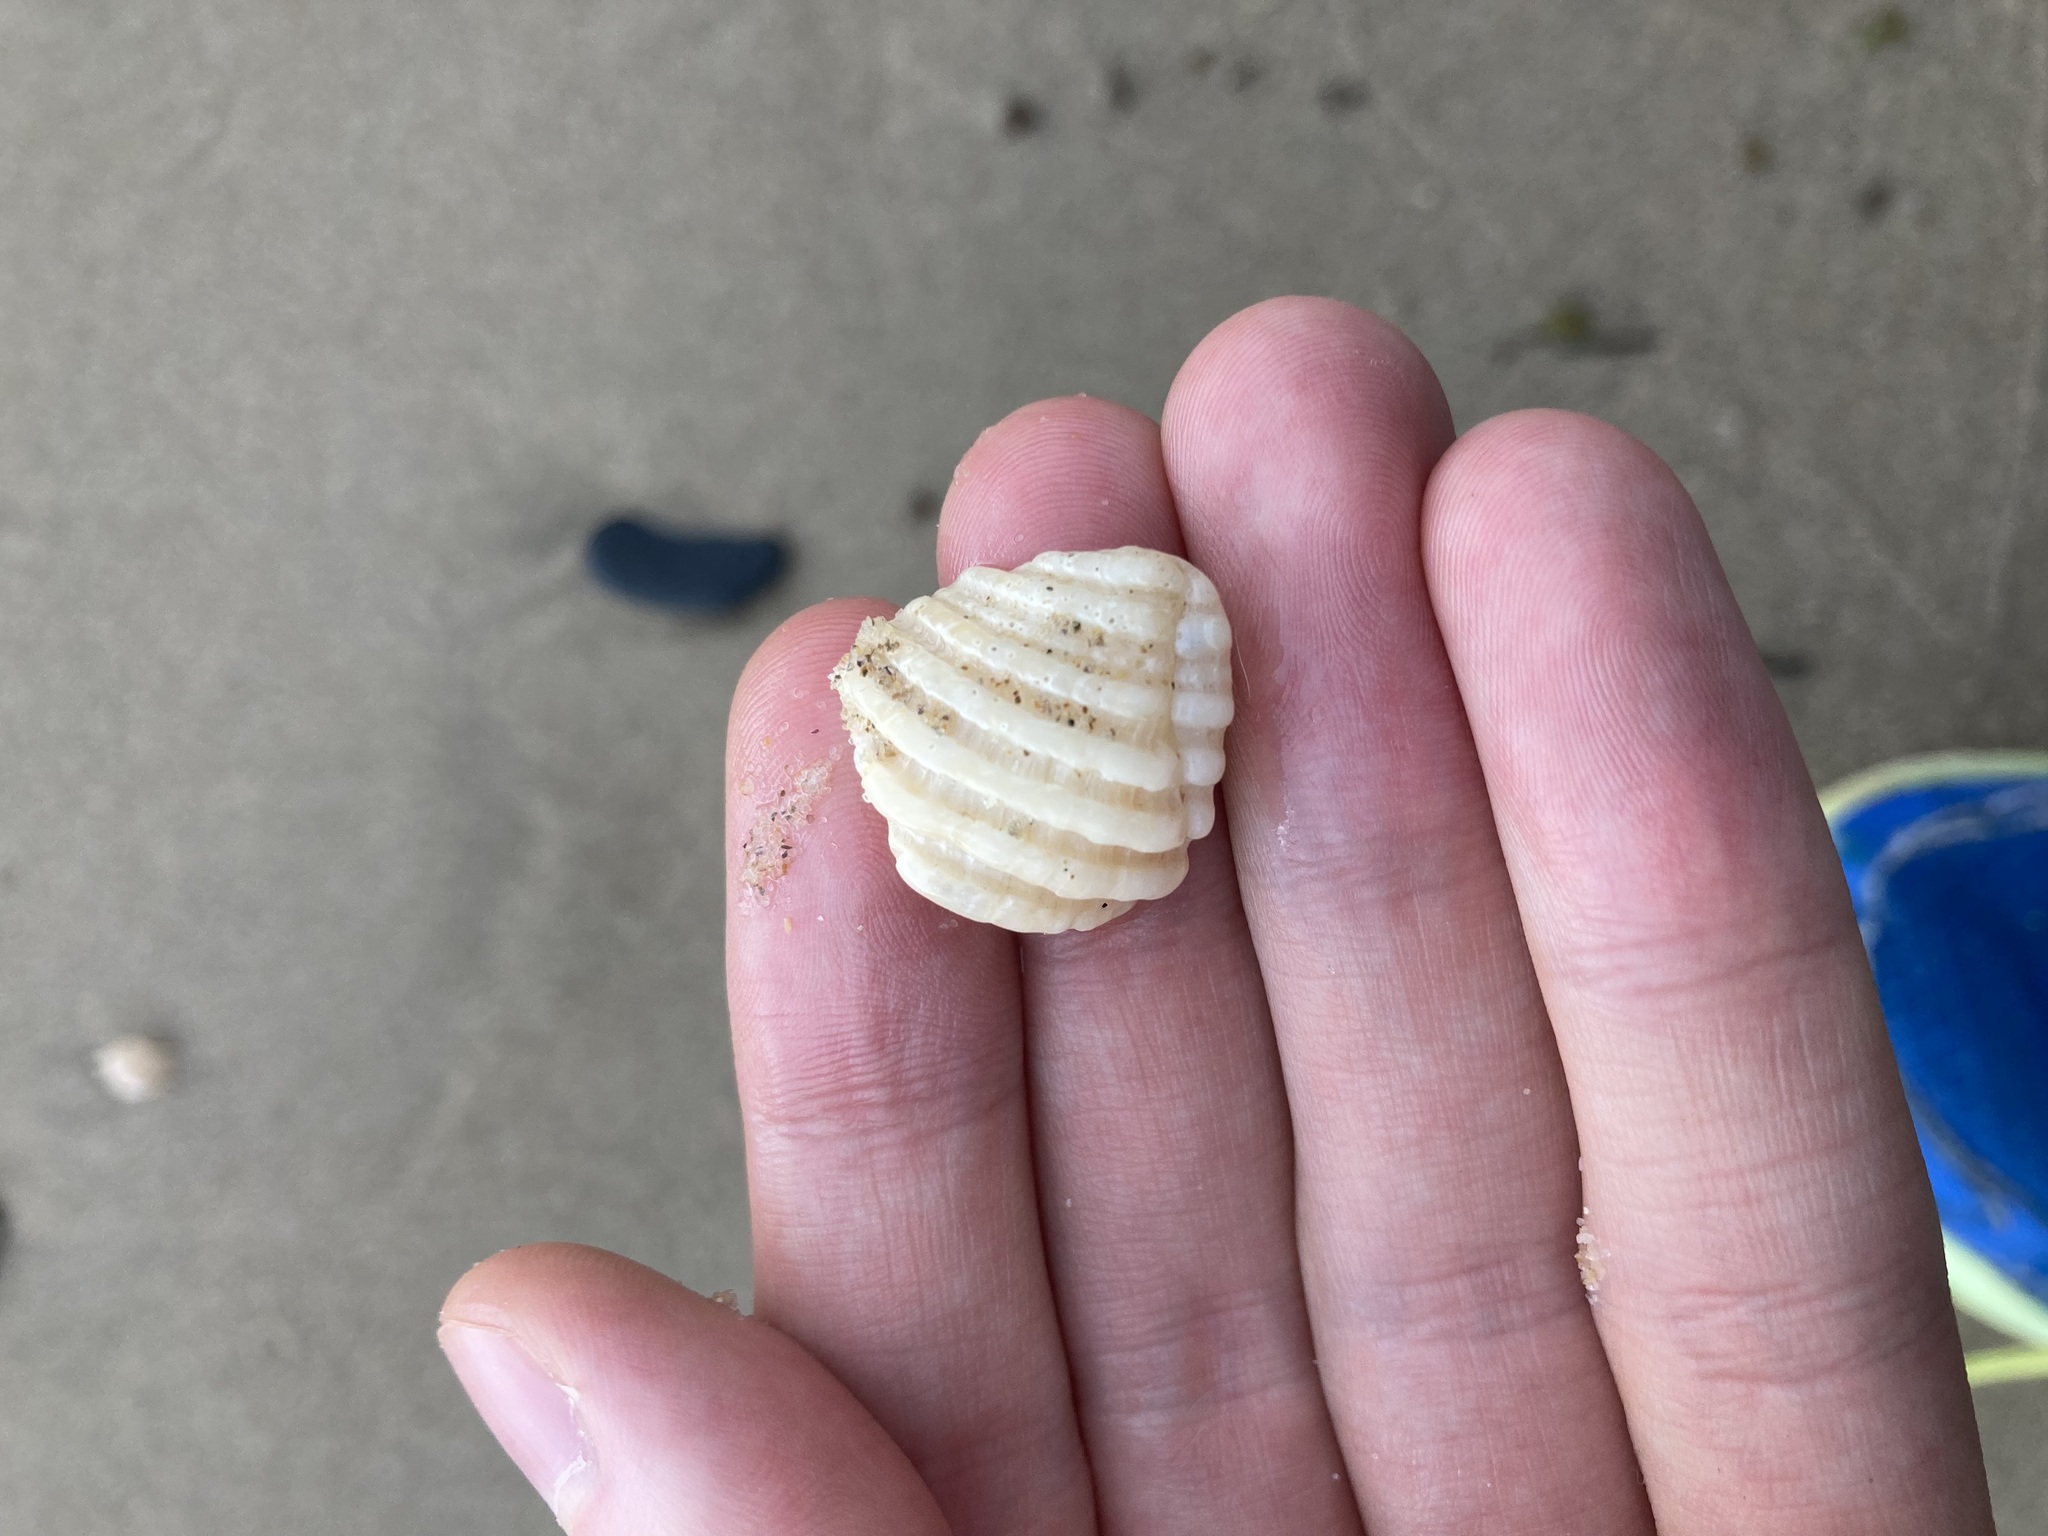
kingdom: Animalia
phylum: Mollusca
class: Gastropoda
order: Neogastropoda
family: Muricidae
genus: Dicathais
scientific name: Dicathais orbita
